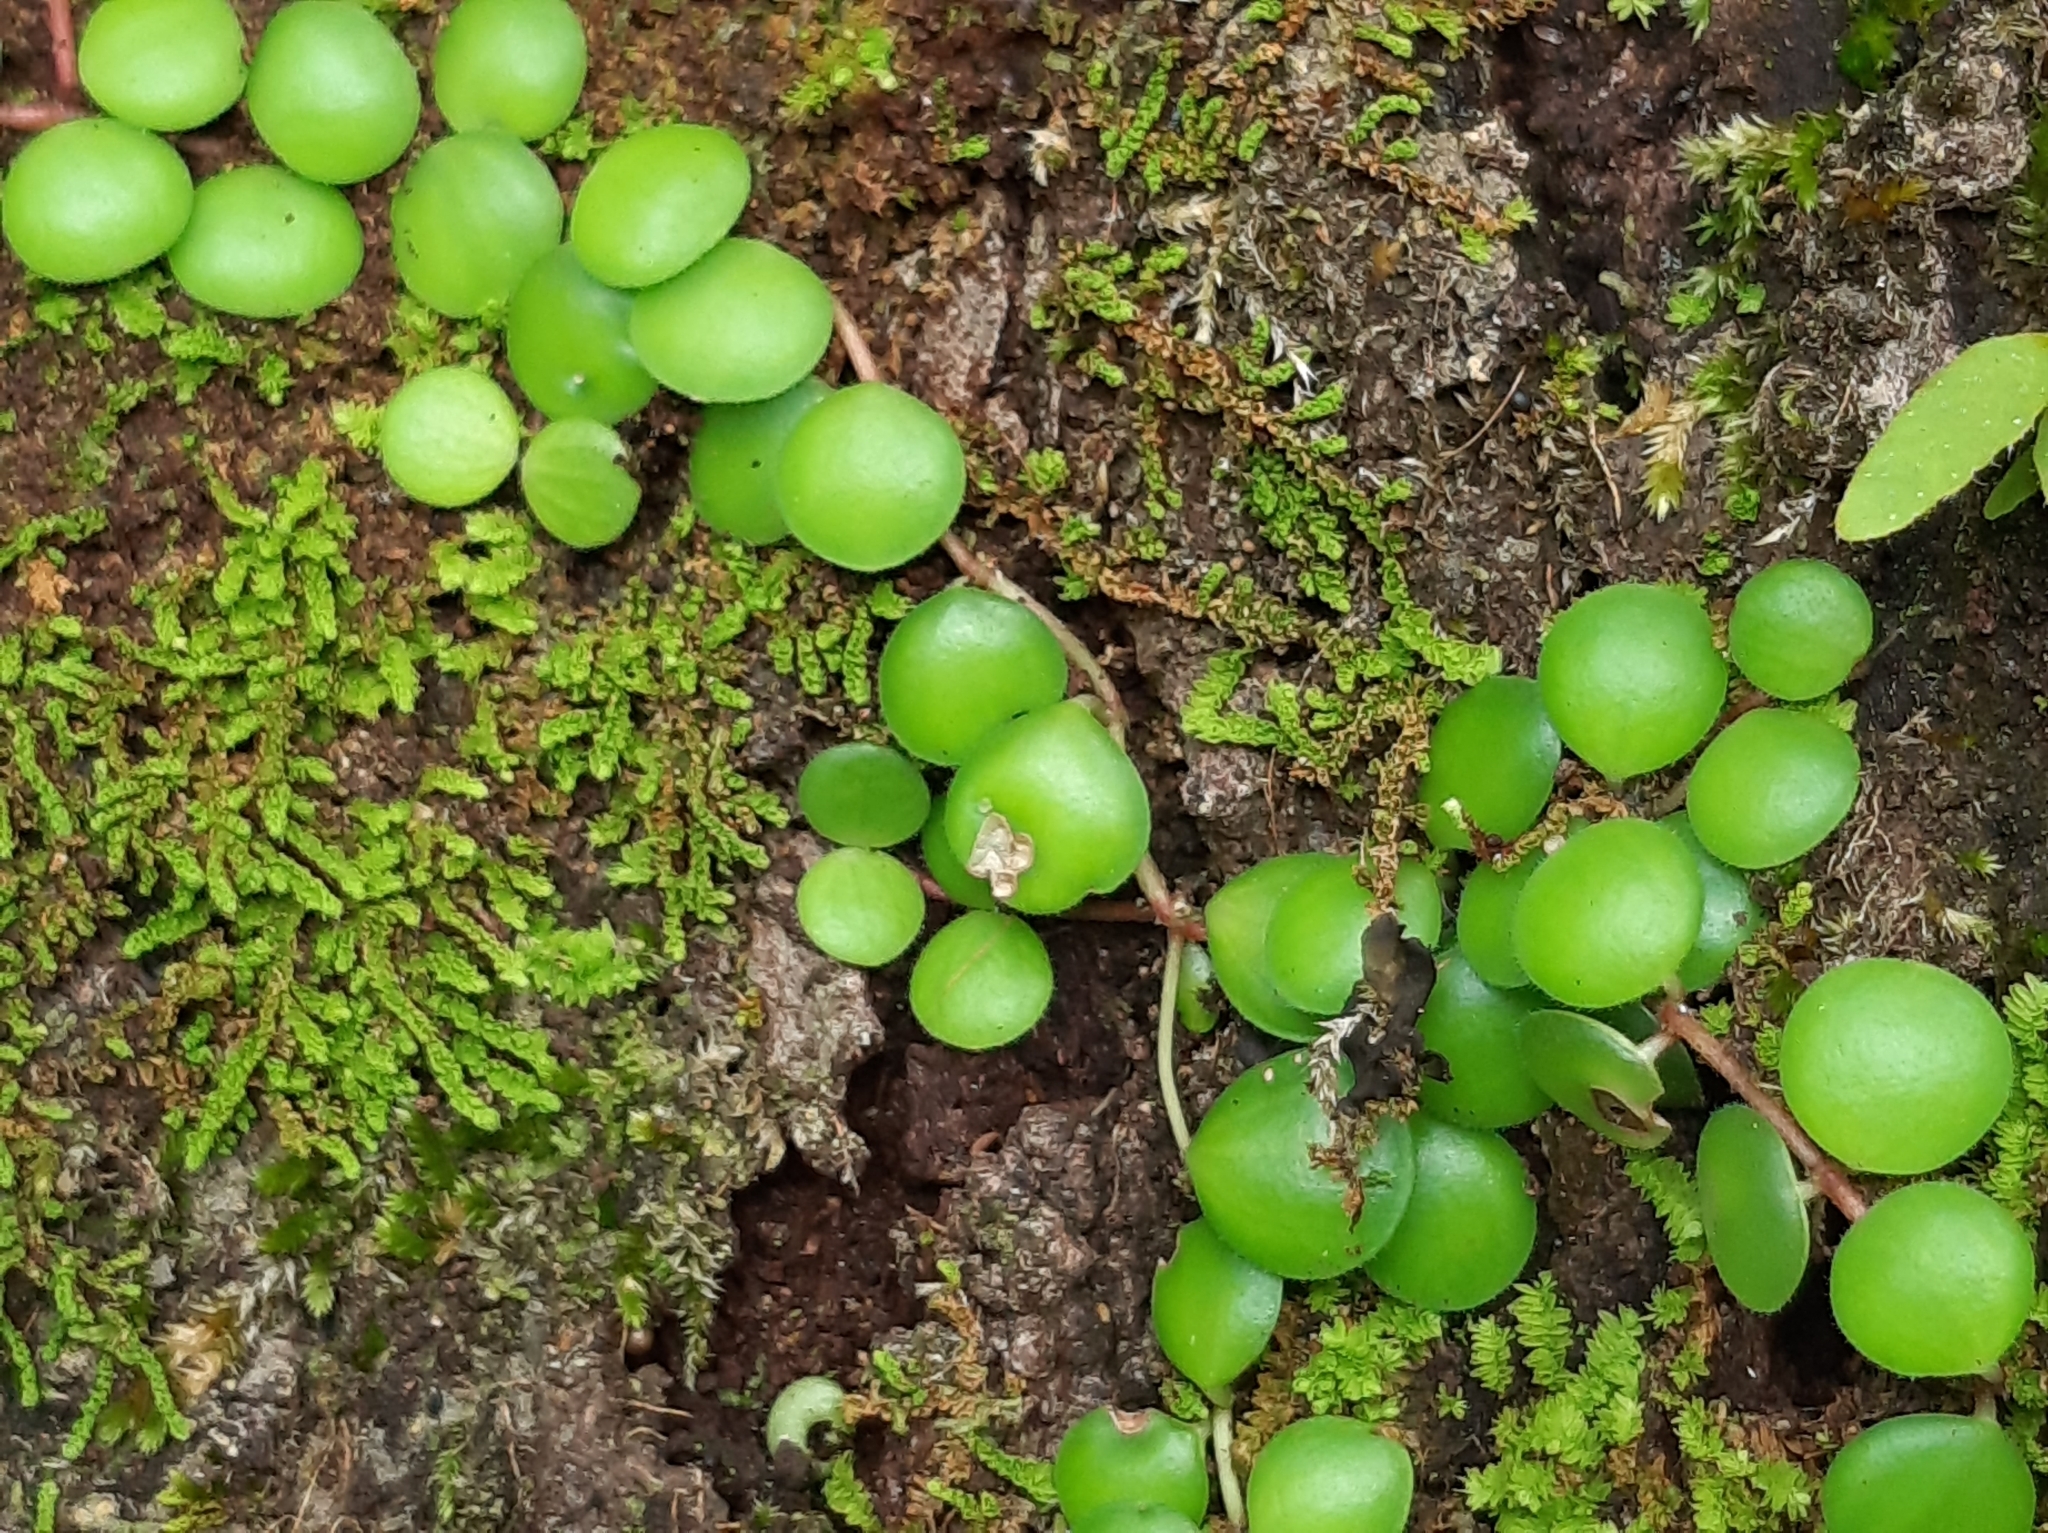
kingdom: Plantae
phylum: Tracheophyta
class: Magnoliopsida
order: Piperales
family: Piperaceae
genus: Peperomia
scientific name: Peperomia cyclophylla
